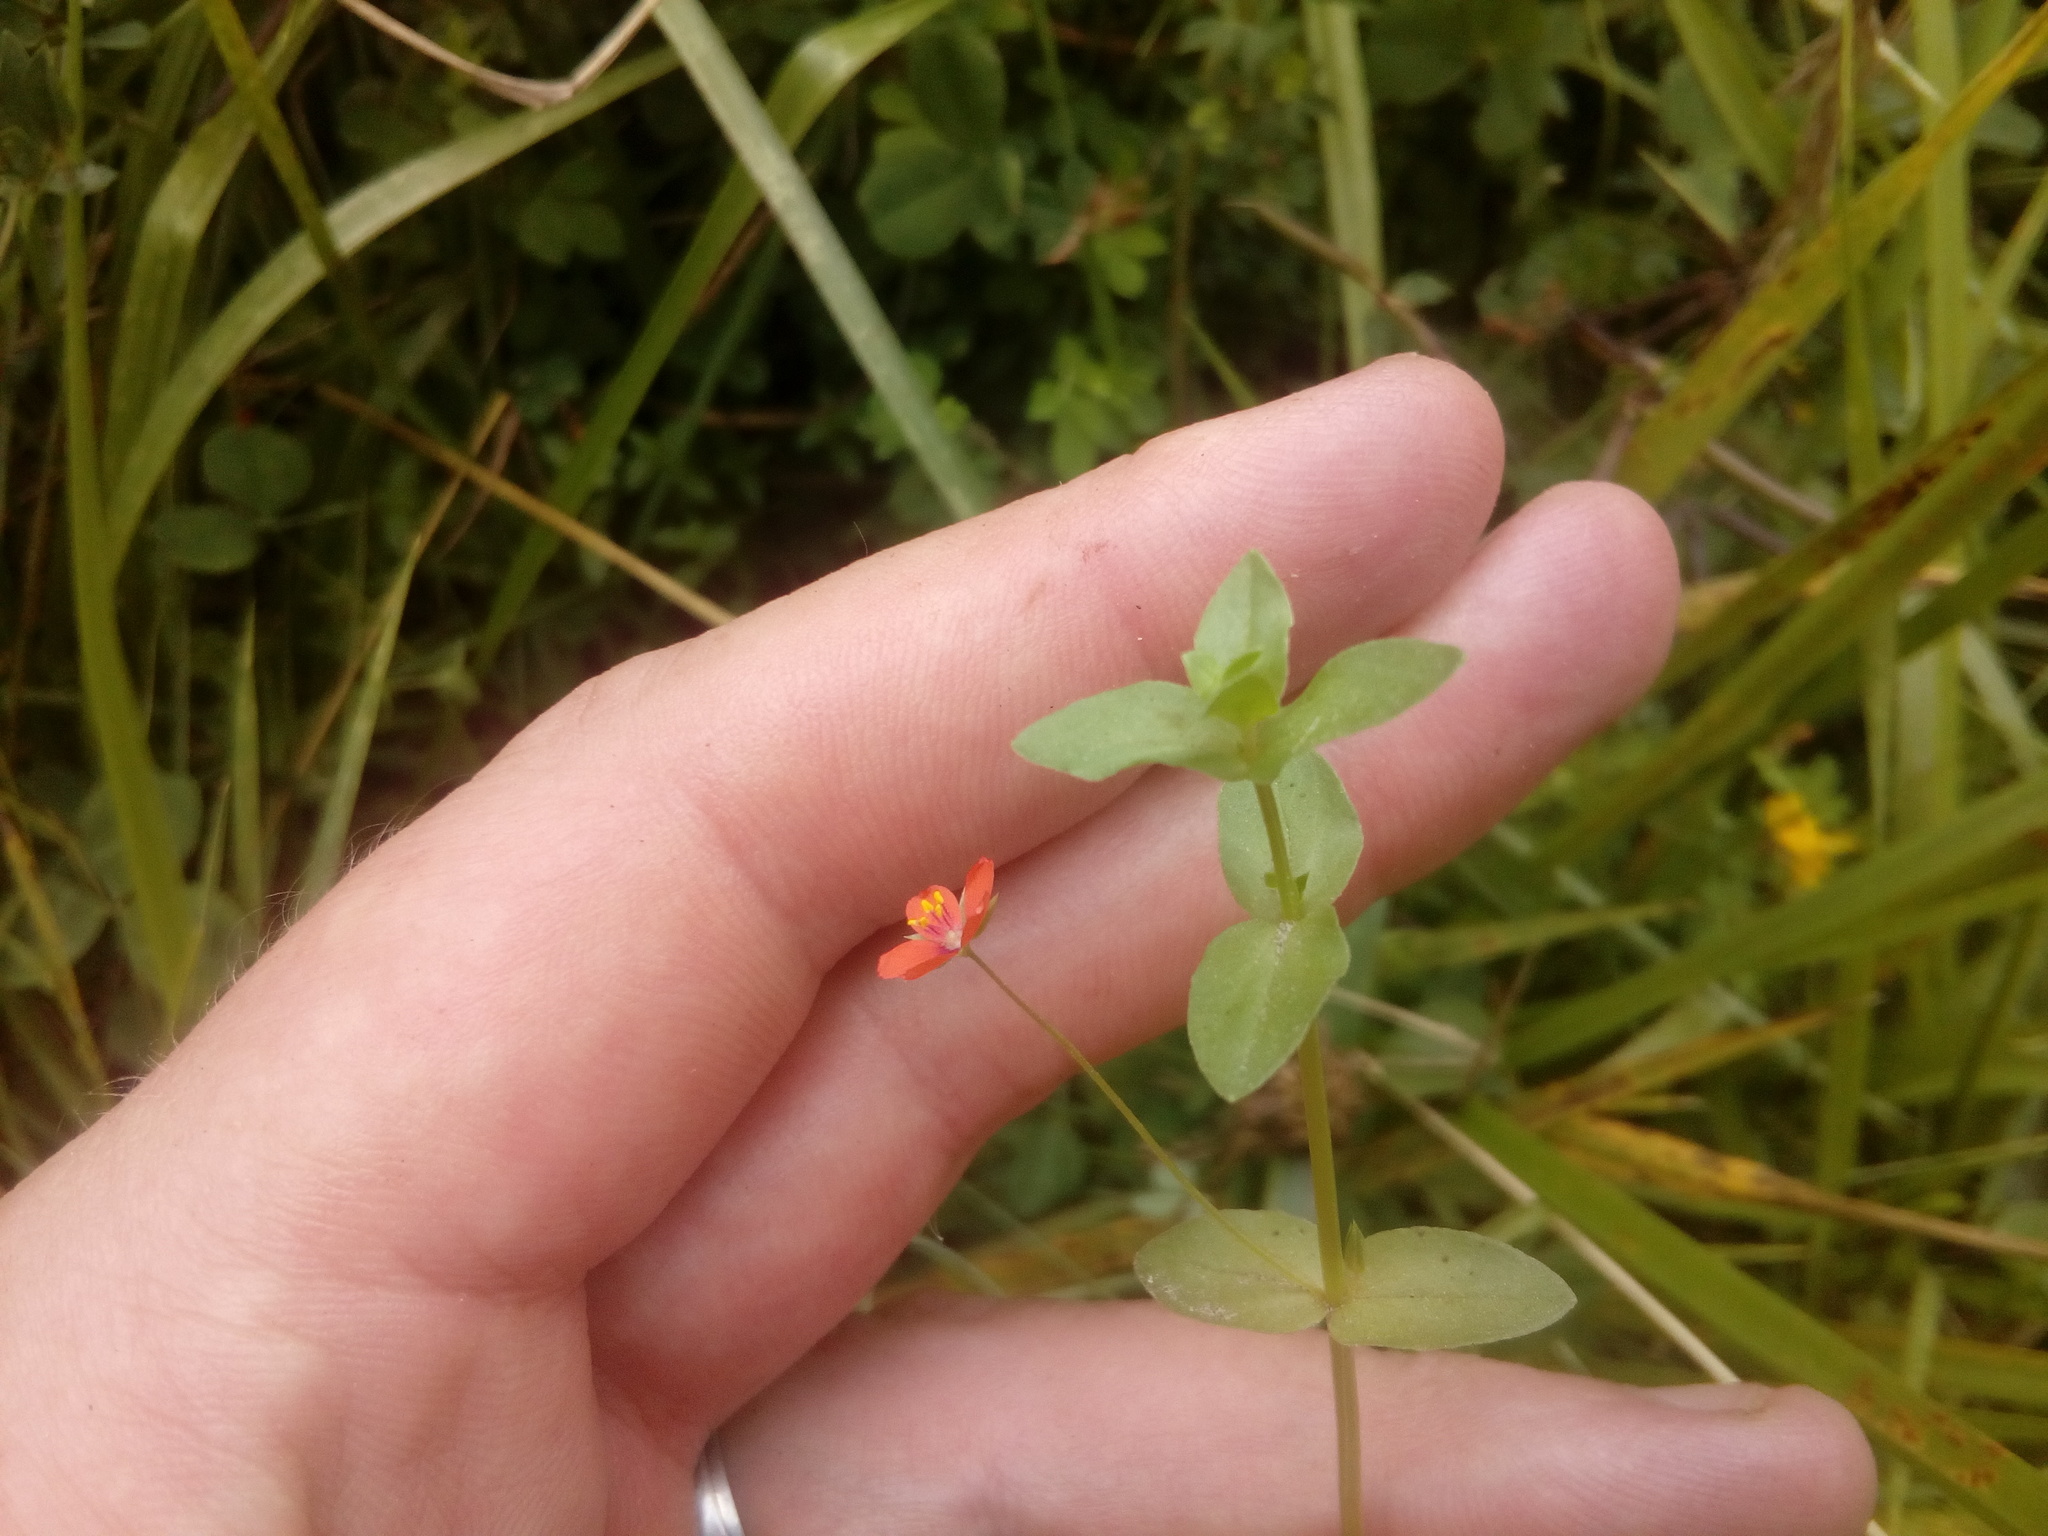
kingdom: Plantae
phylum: Tracheophyta
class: Magnoliopsida
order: Ericales
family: Primulaceae
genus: Lysimachia
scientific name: Lysimachia arvensis
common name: Scarlet pimpernel
